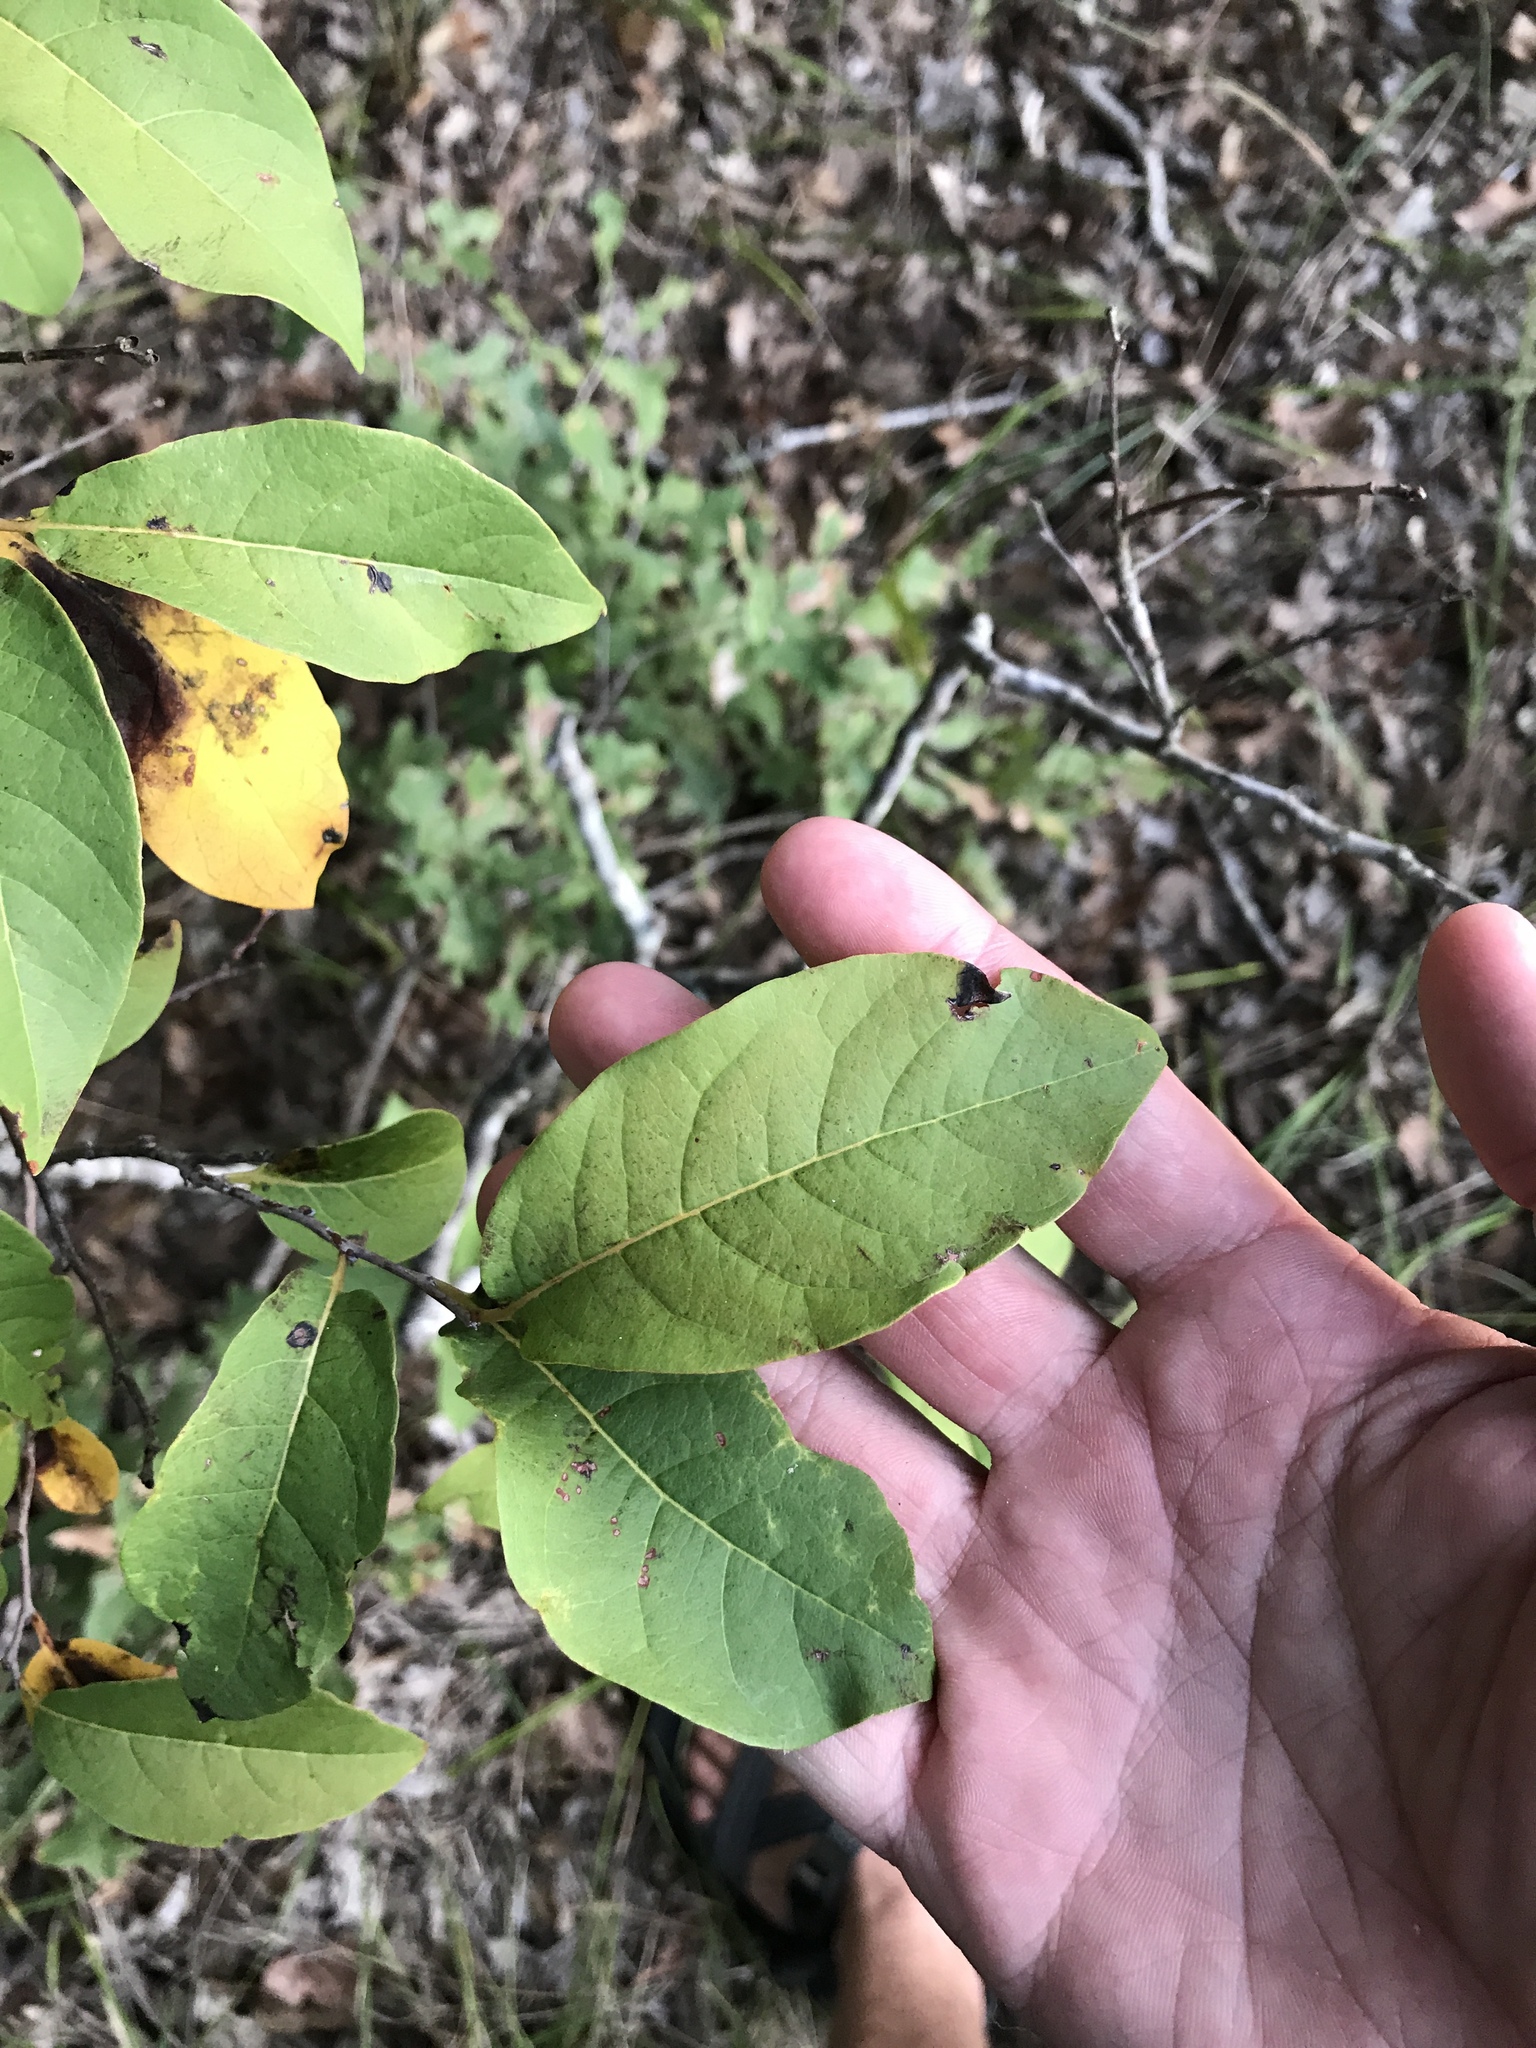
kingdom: Plantae
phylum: Tracheophyta
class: Magnoliopsida
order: Ericales
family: Ebenaceae
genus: Diospyros
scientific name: Diospyros virginiana
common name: Persimmon
